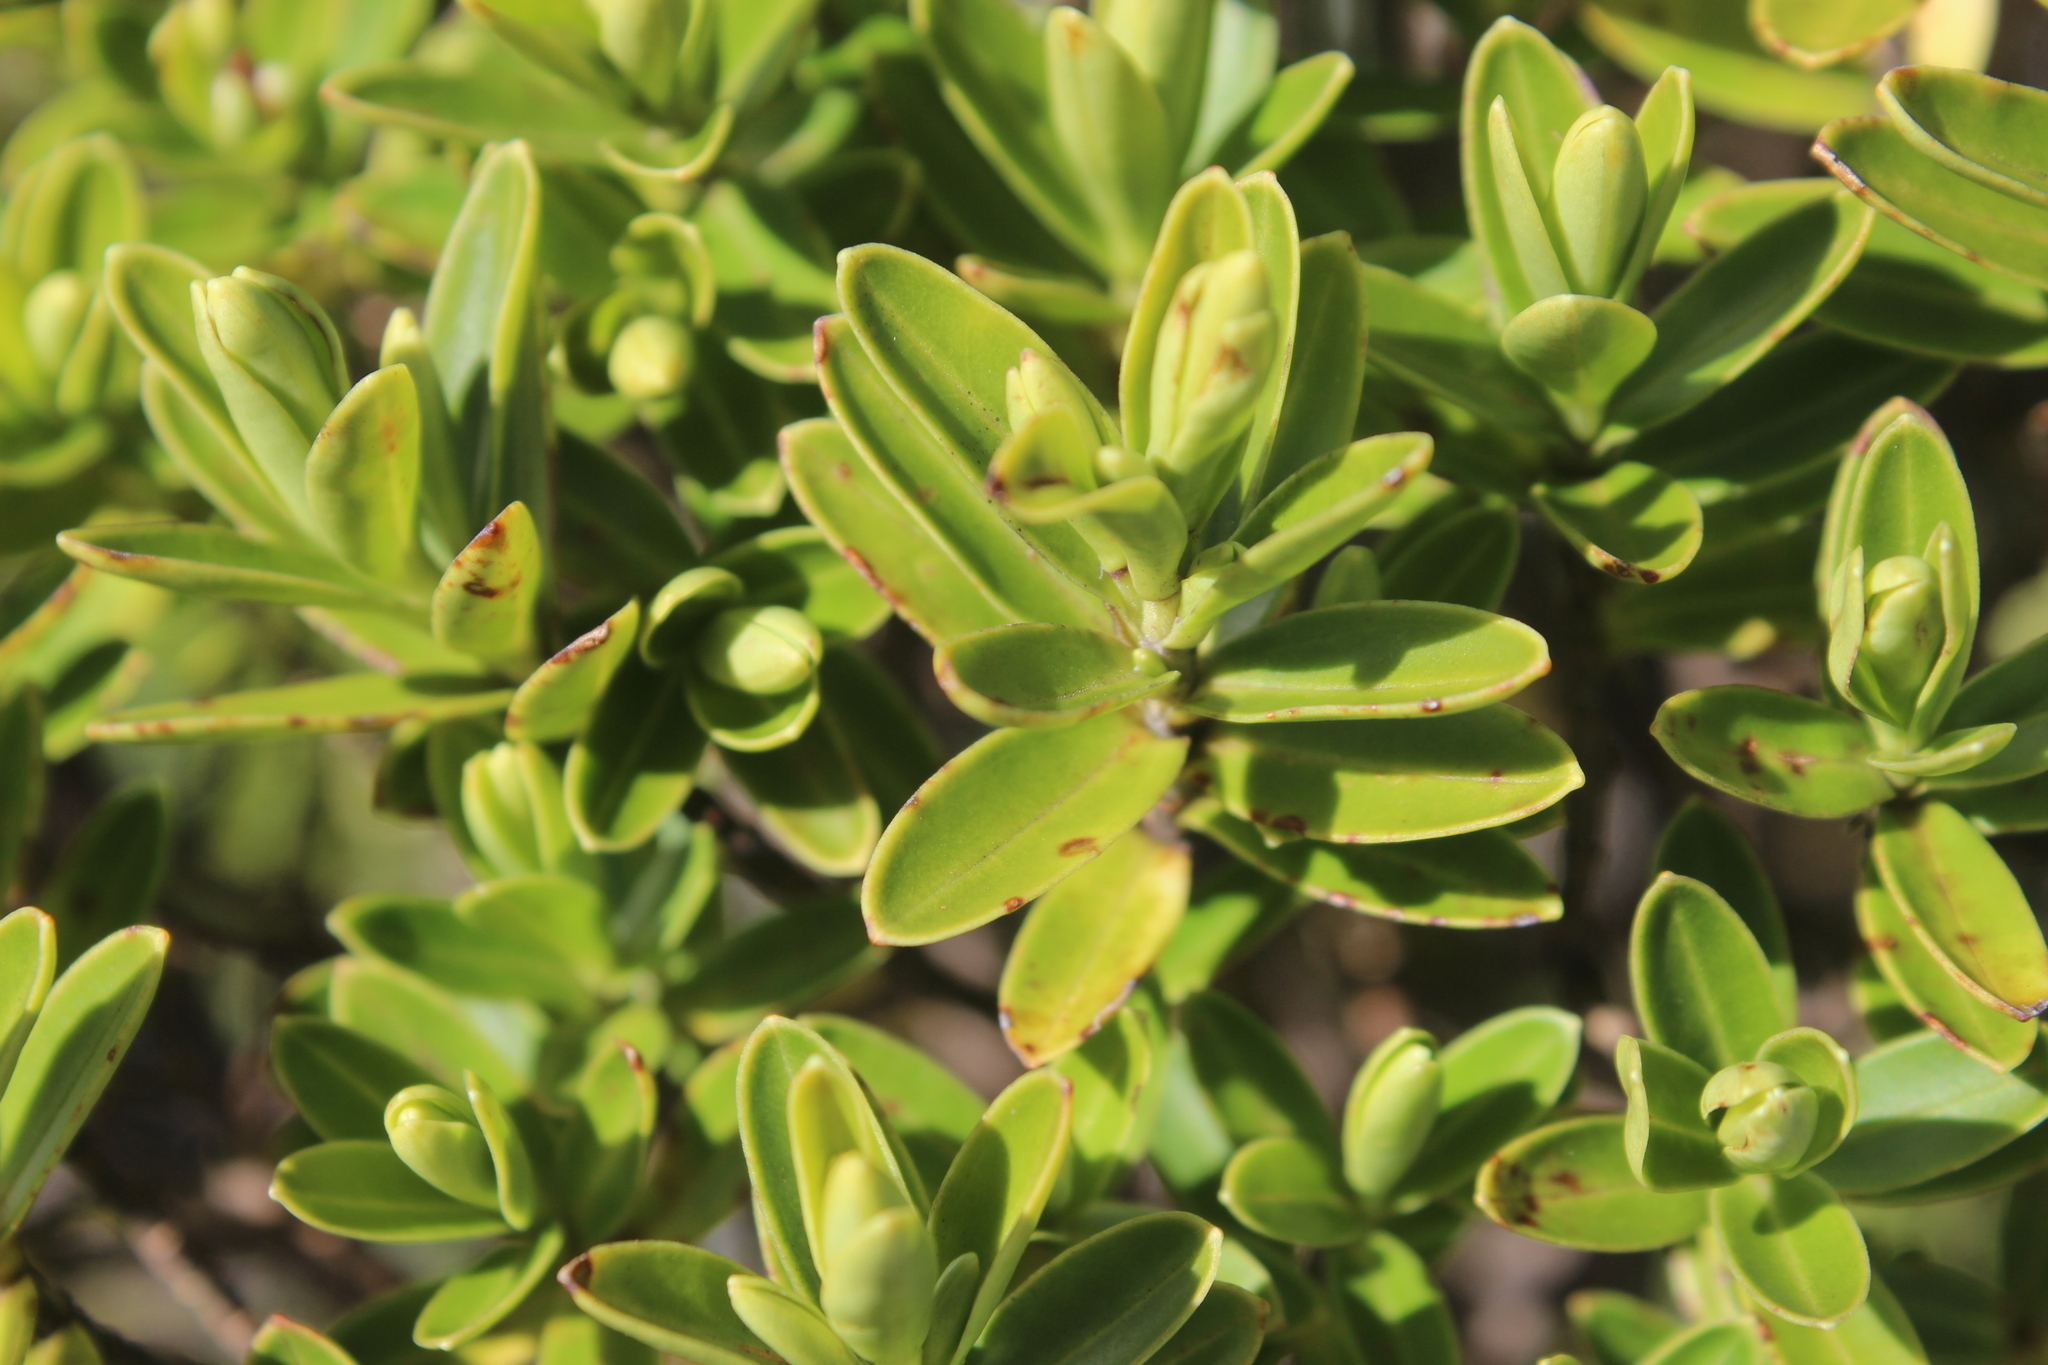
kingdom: Plantae
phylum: Tracheophyta
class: Magnoliopsida
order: Lamiales
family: Plantaginaceae
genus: Veronica
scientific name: Veronica evenosa
